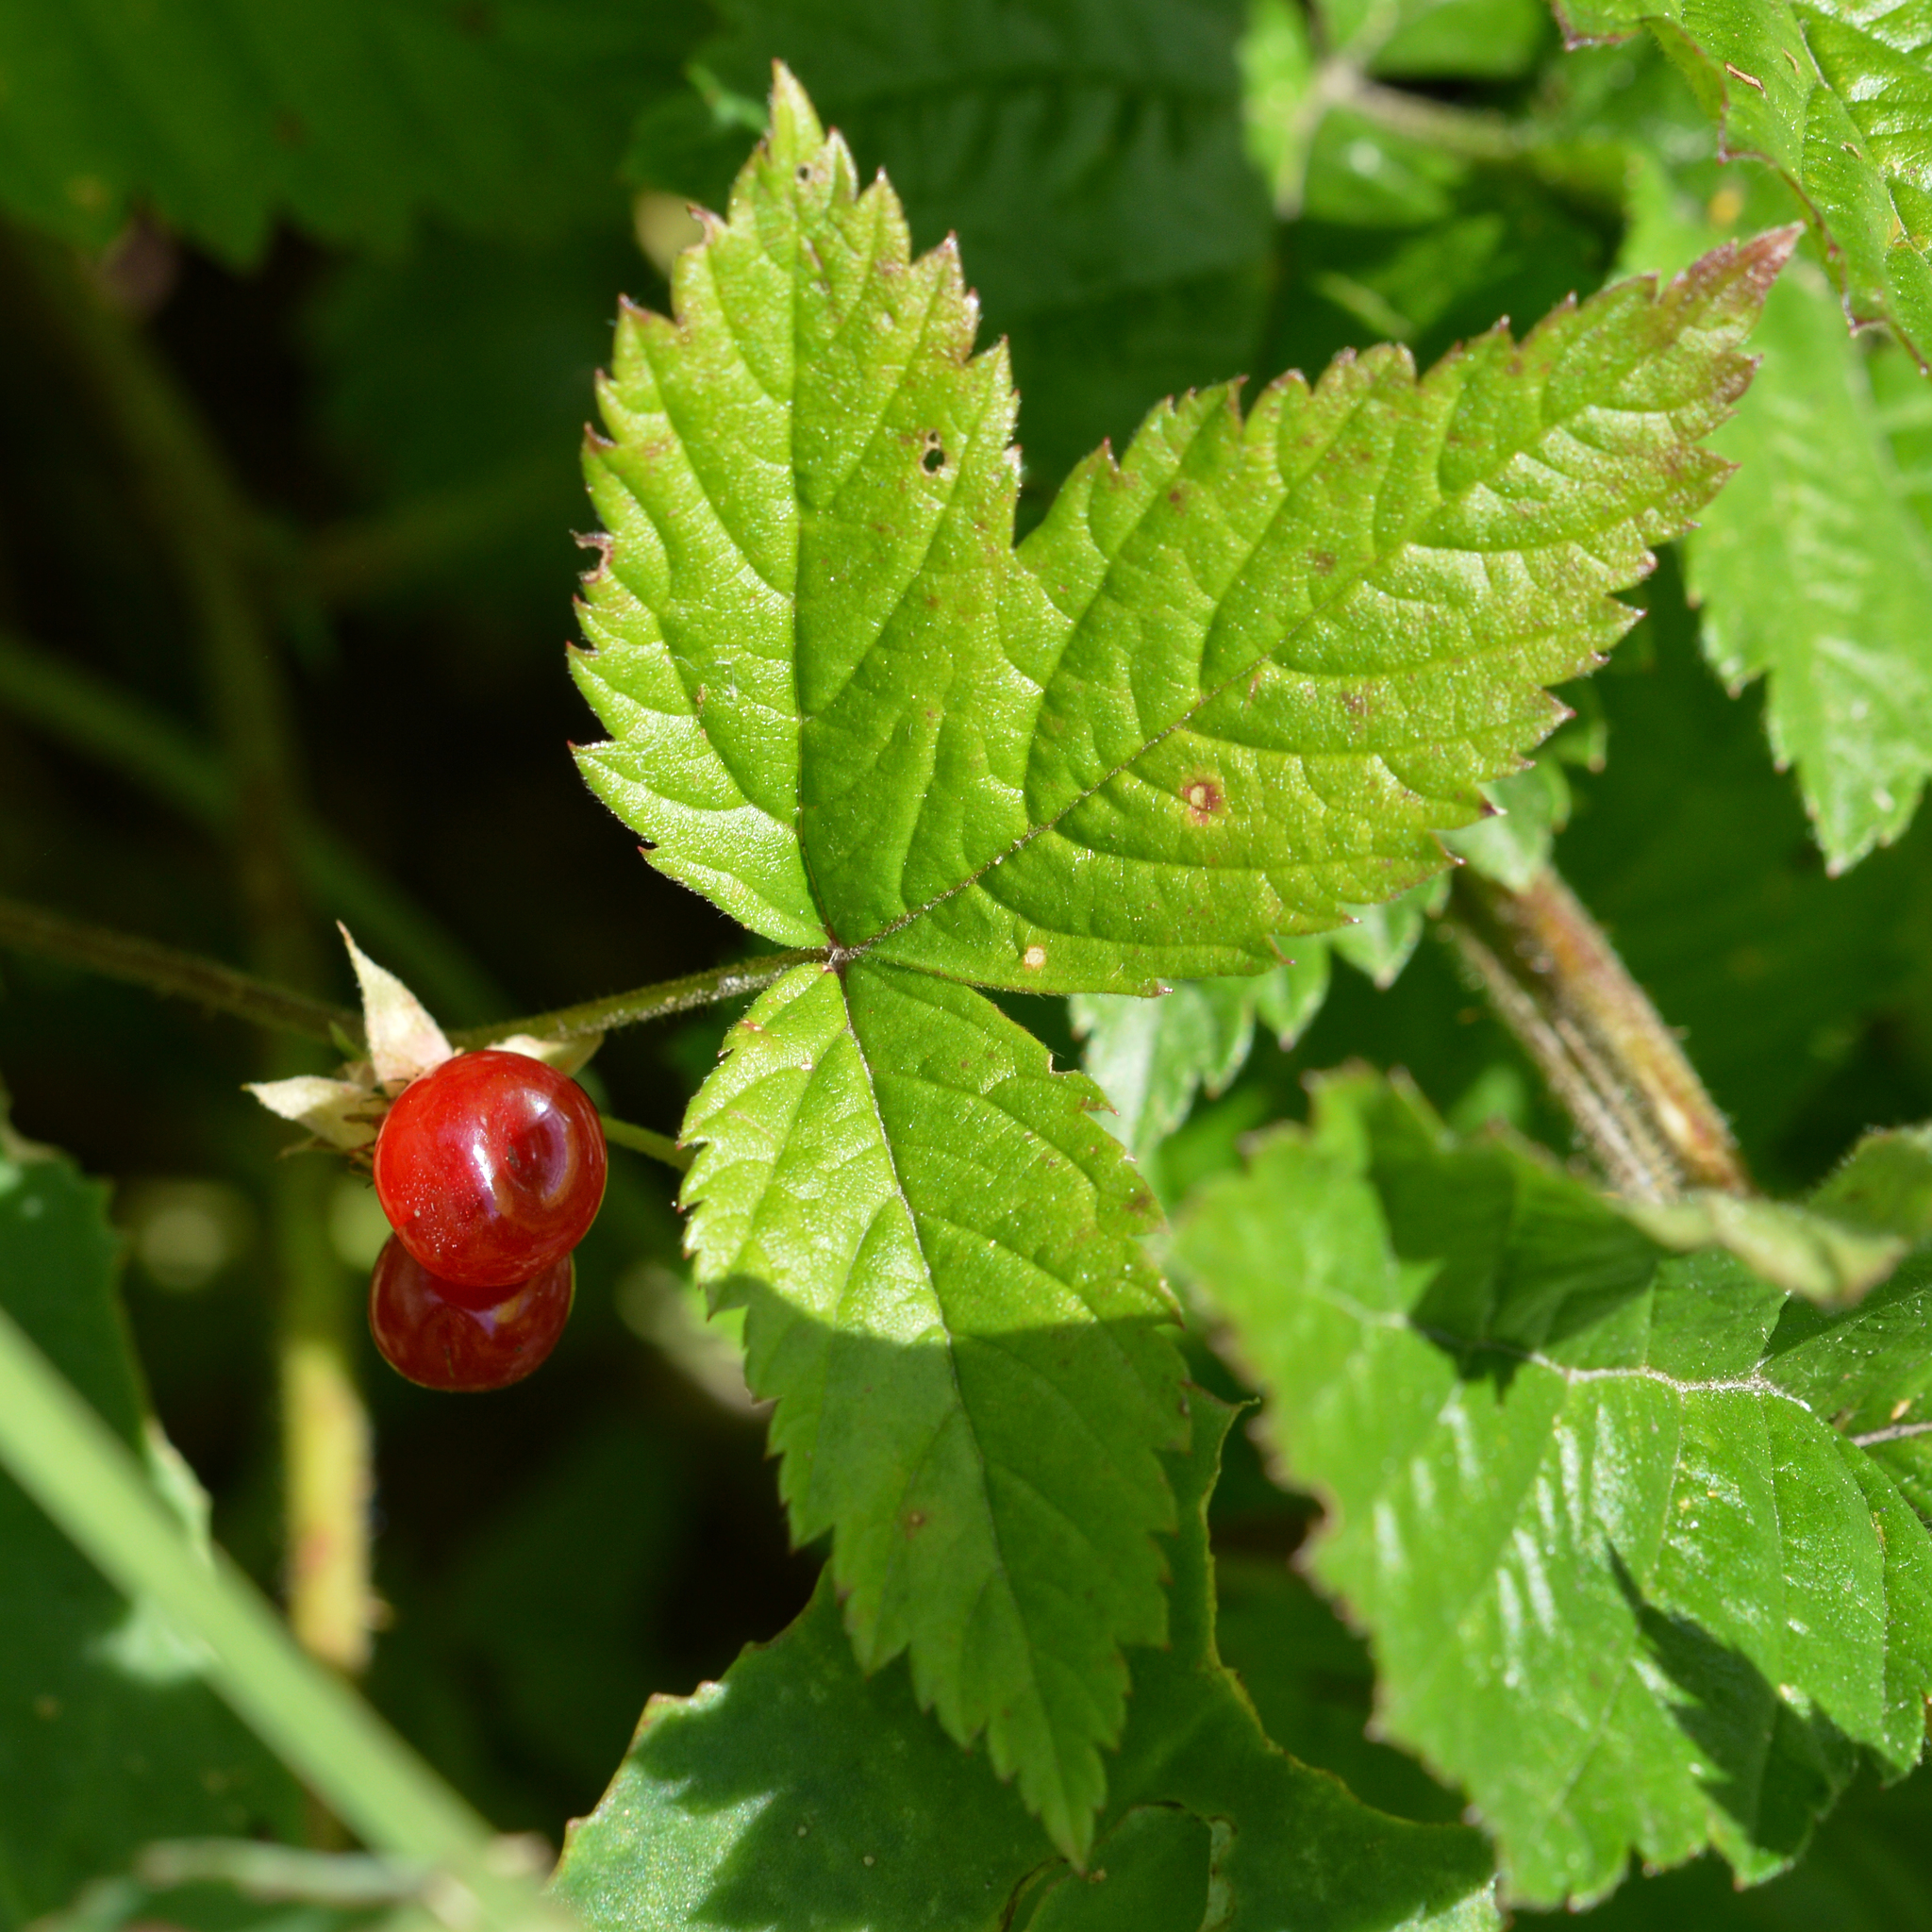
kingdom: Plantae
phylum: Tracheophyta
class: Magnoliopsida
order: Rosales
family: Rosaceae
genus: Rubus
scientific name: Rubus saxatilis
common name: Stone bramble
